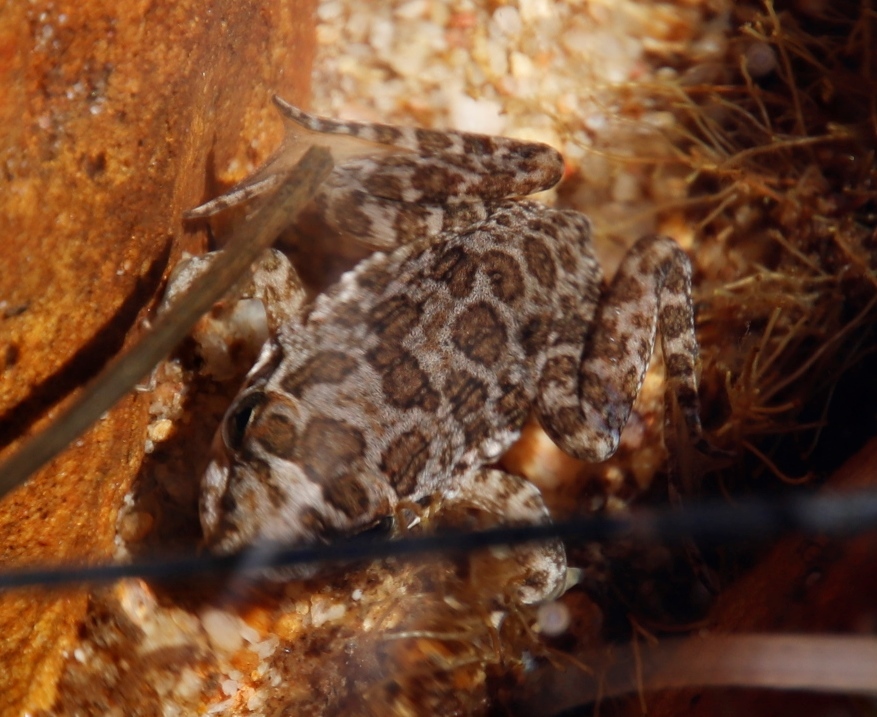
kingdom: Animalia
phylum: Chordata
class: Amphibia
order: Anura
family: Pyxicephalidae
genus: Amietia
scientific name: Amietia fuscigula
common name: Cape rana
